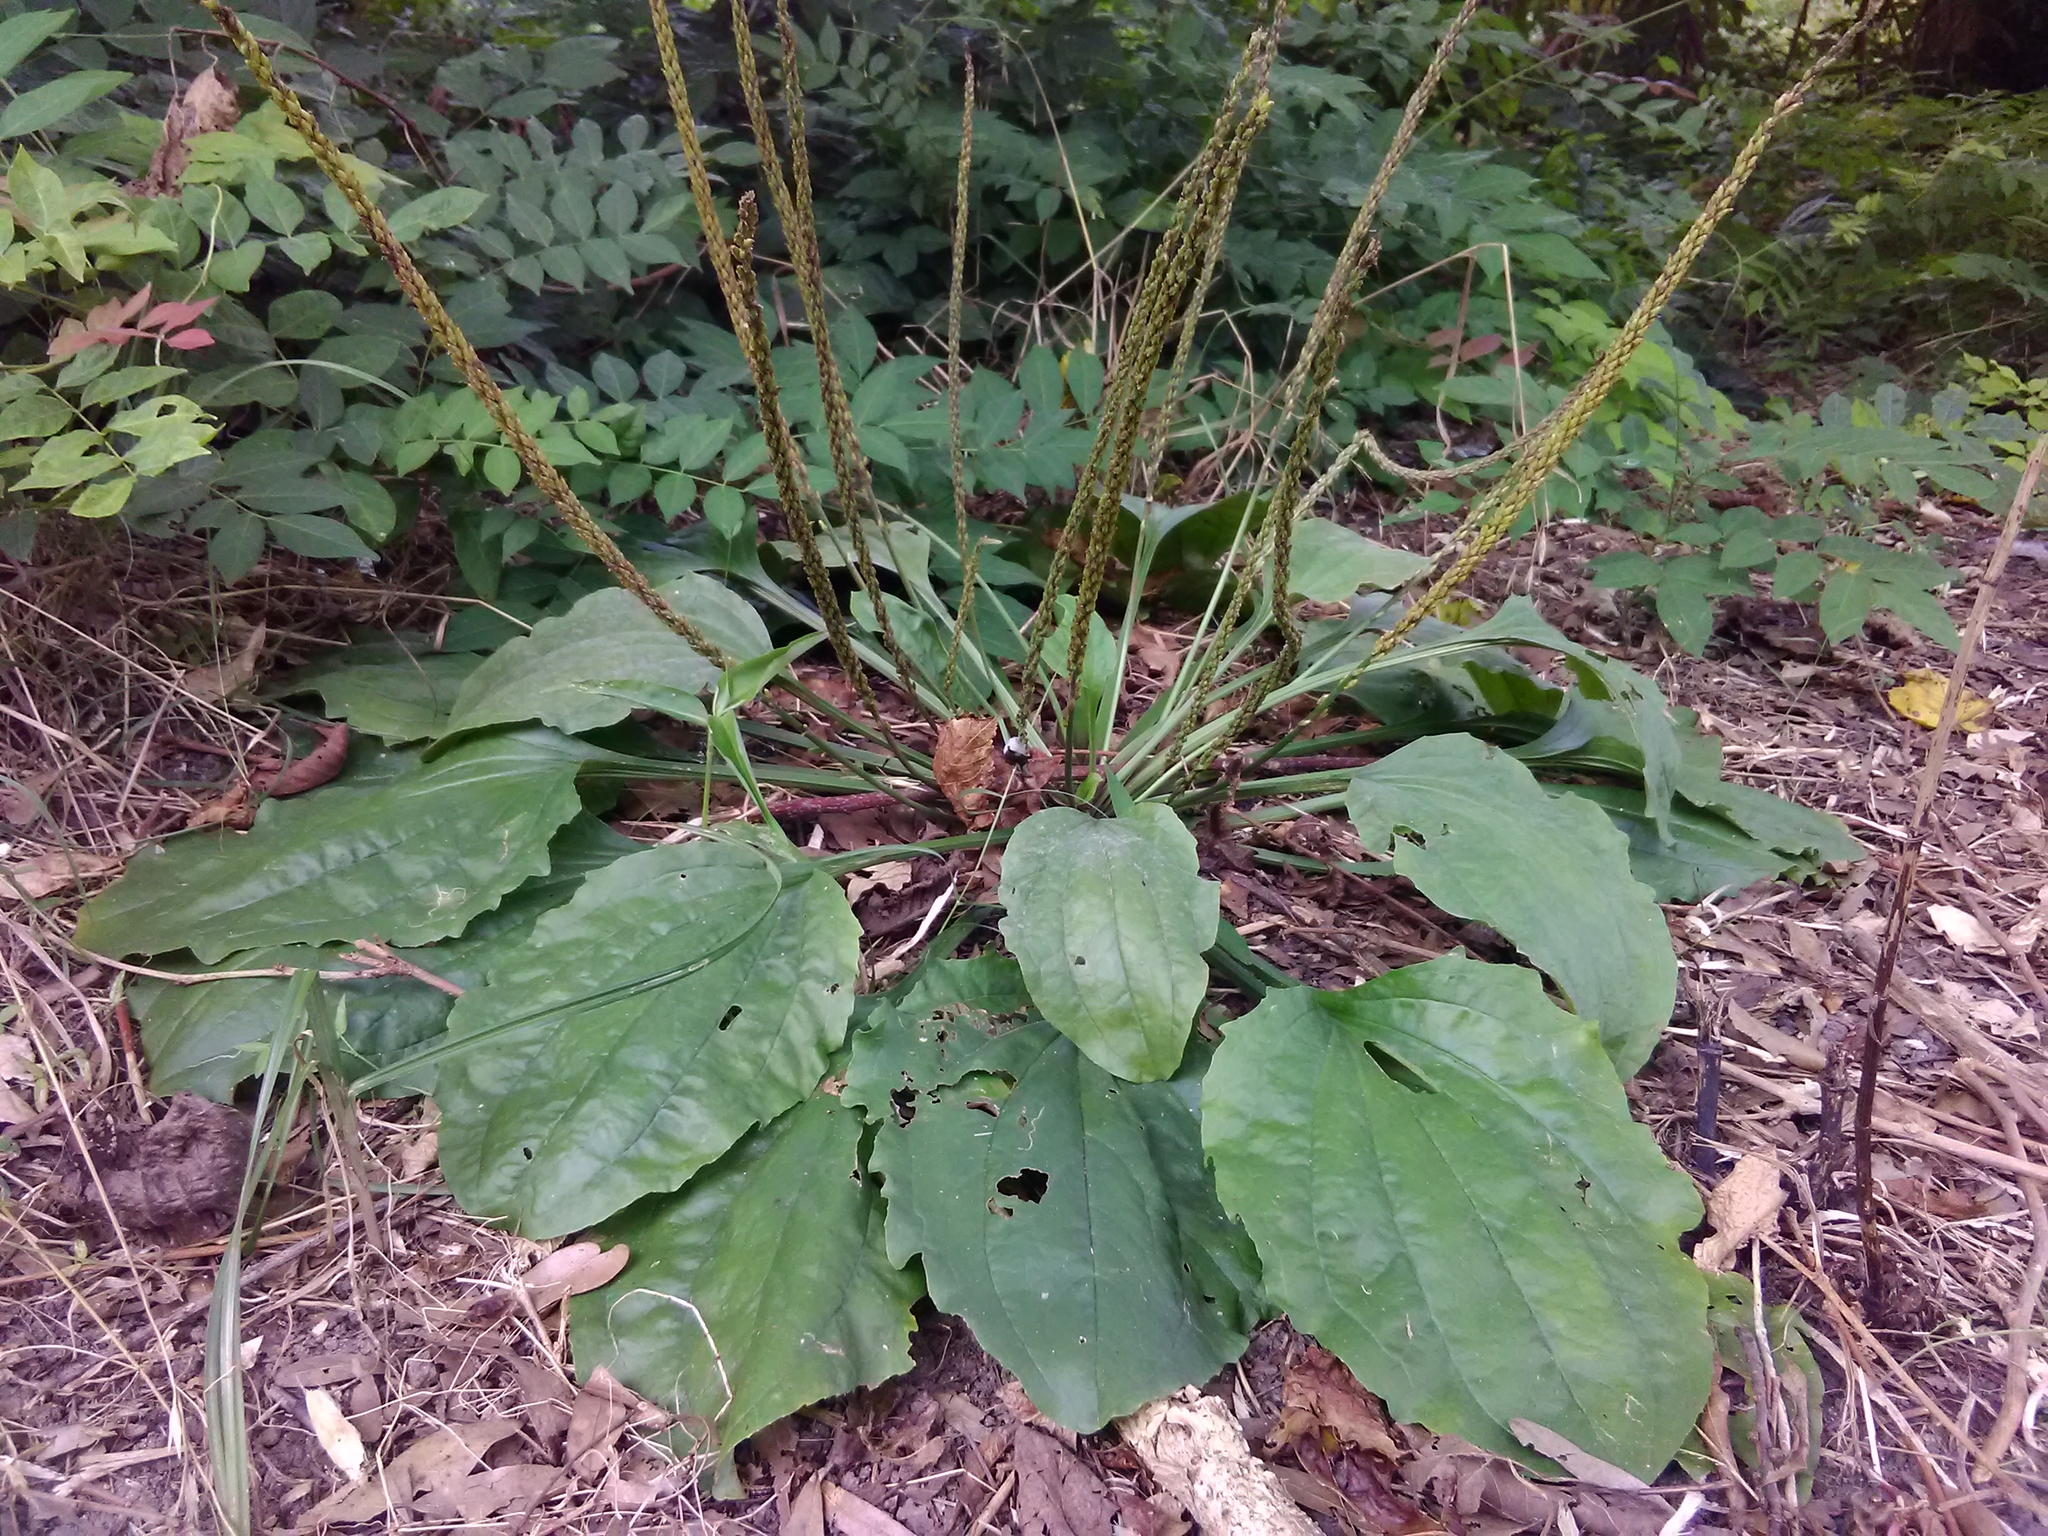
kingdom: Plantae
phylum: Tracheophyta
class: Magnoliopsida
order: Lamiales
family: Plantaginaceae
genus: Plantago
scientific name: Plantago major
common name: Common plantain
